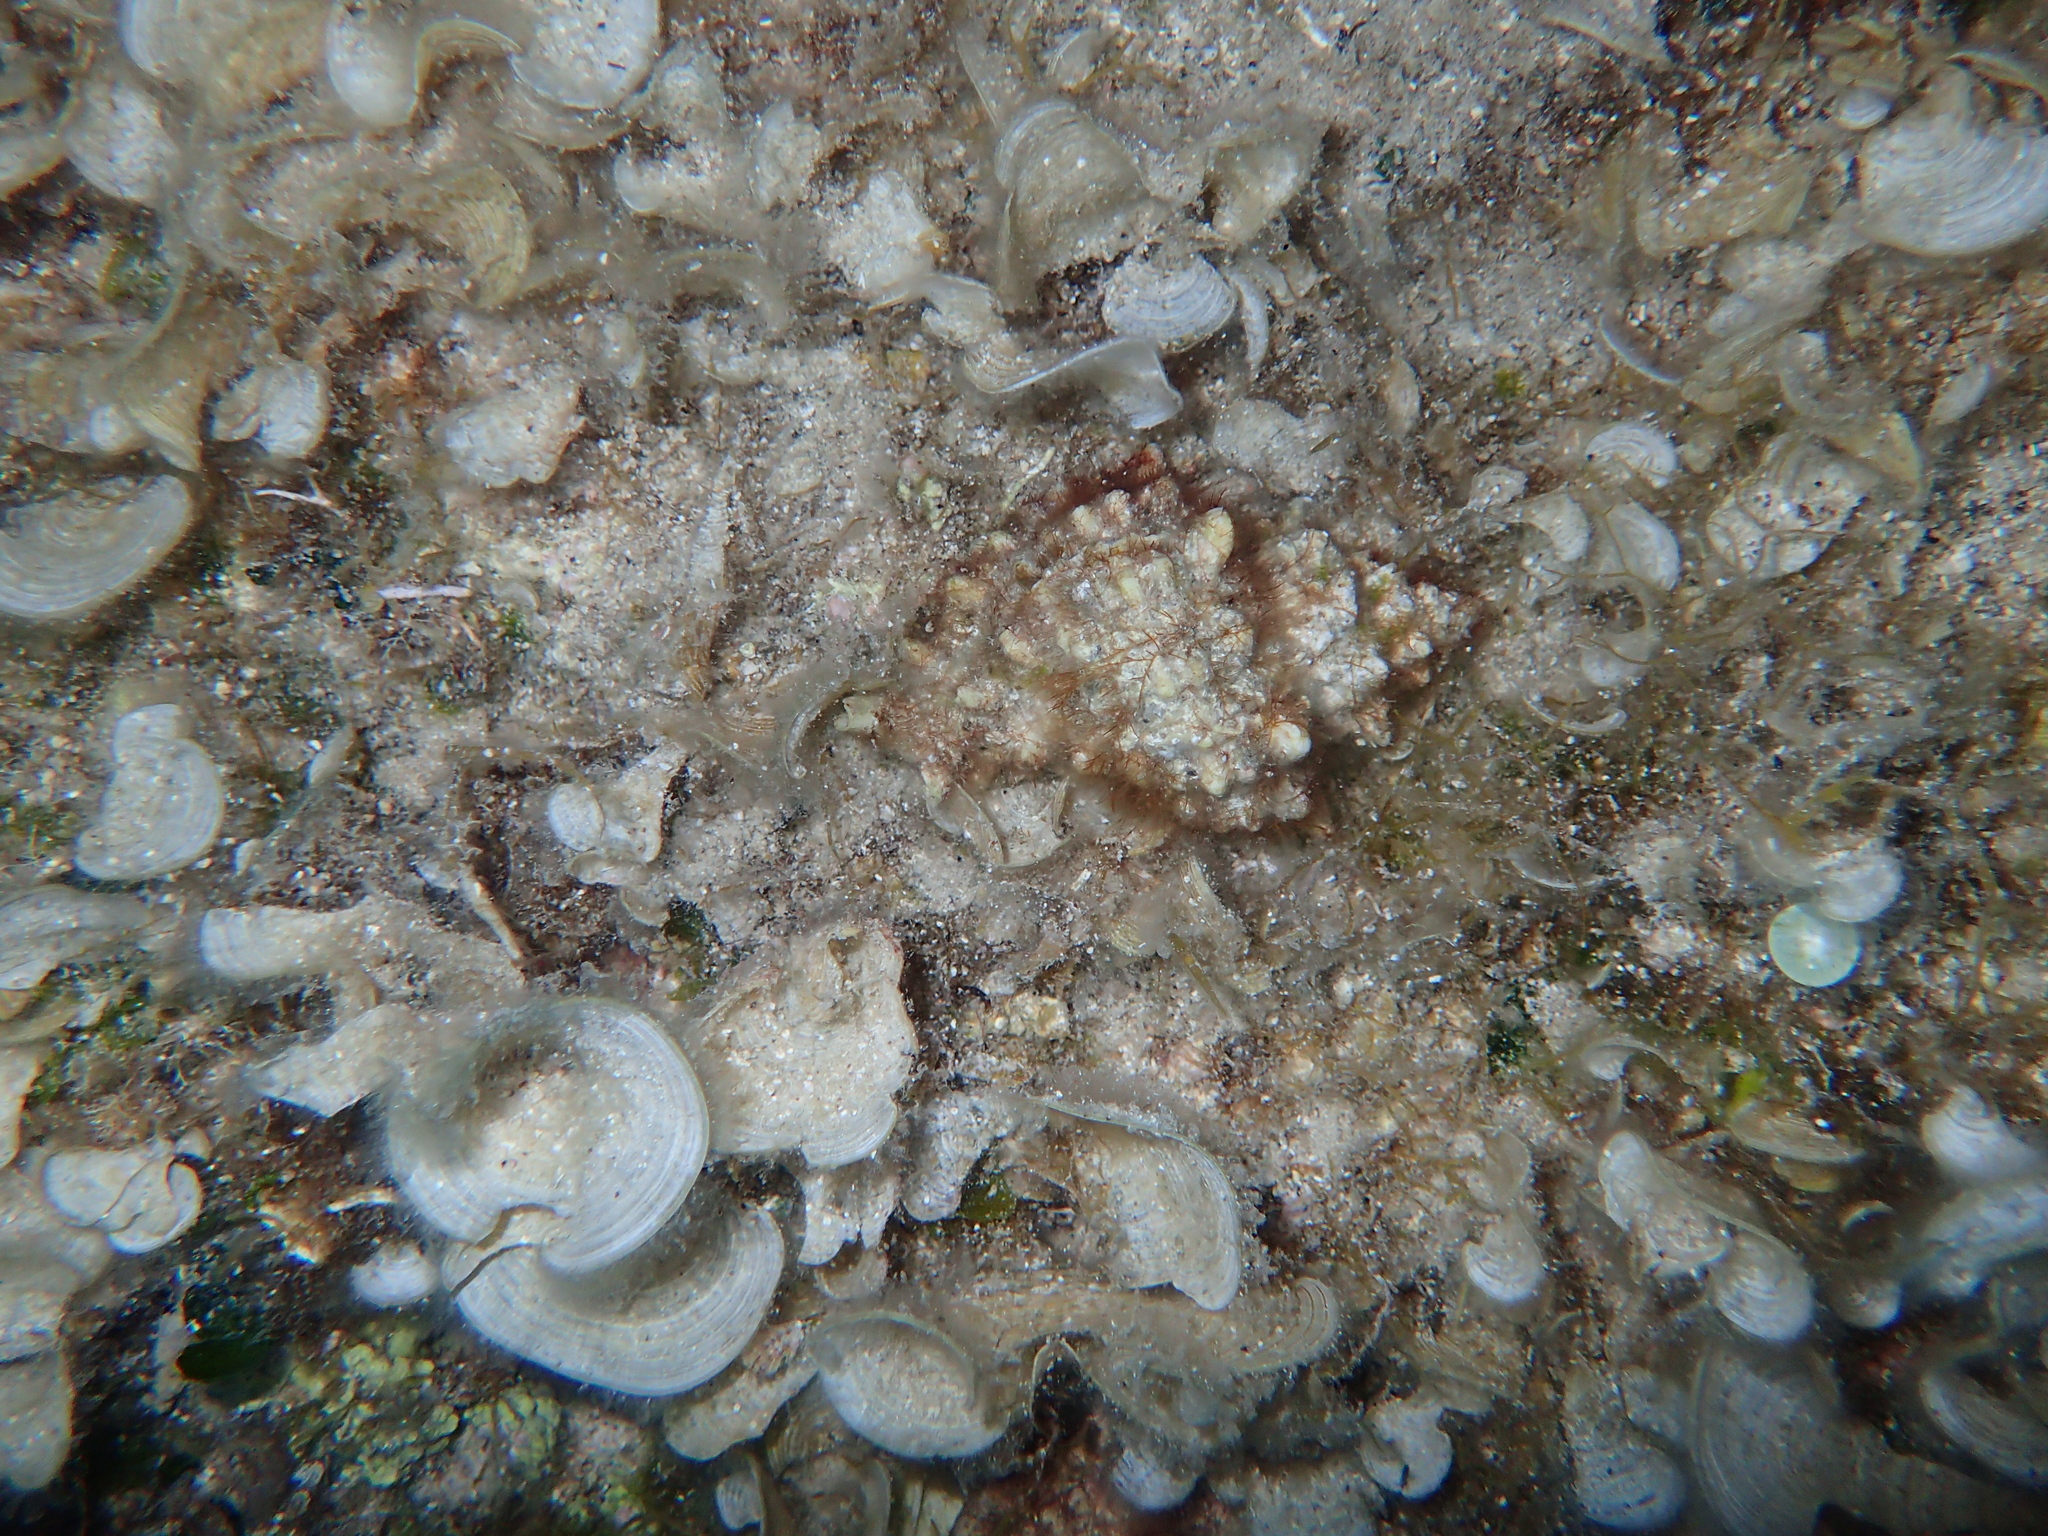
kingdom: Animalia
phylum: Mollusca
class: Gastropoda
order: Neogastropoda
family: Muricidae
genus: Hexaplex
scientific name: Hexaplex trunculus
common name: Banded dye-murex
